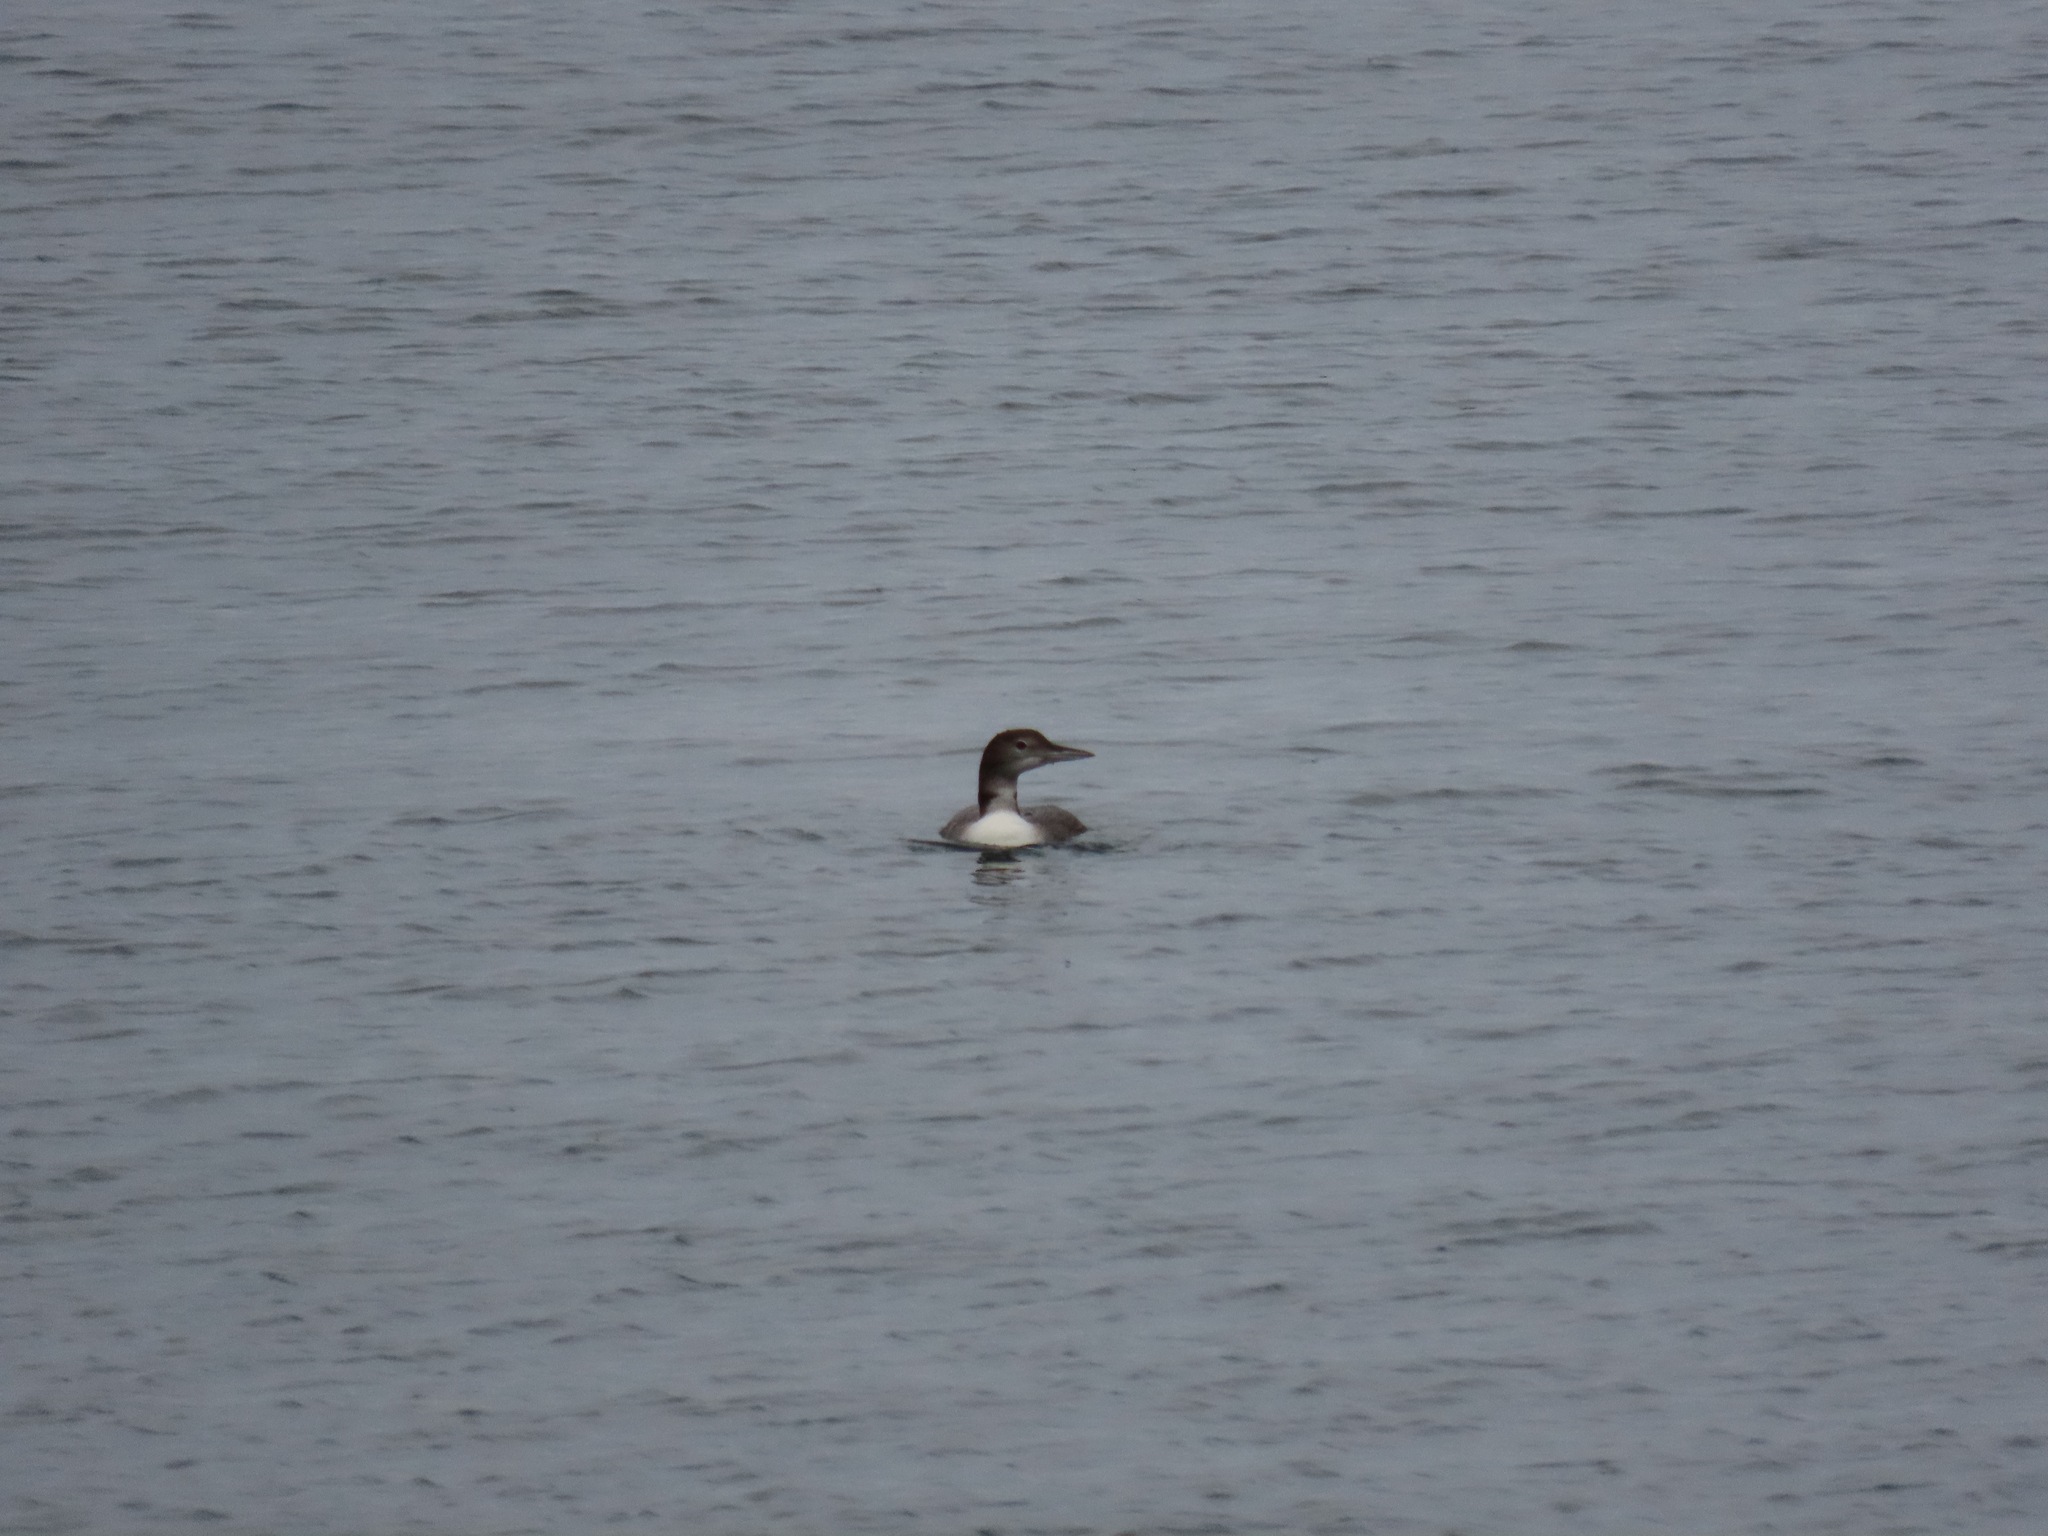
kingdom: Animalia
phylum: Chordata
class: Aves
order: Gaviiformes
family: Gaviidae
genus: Gavia
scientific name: Gavia immer
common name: Common loon
